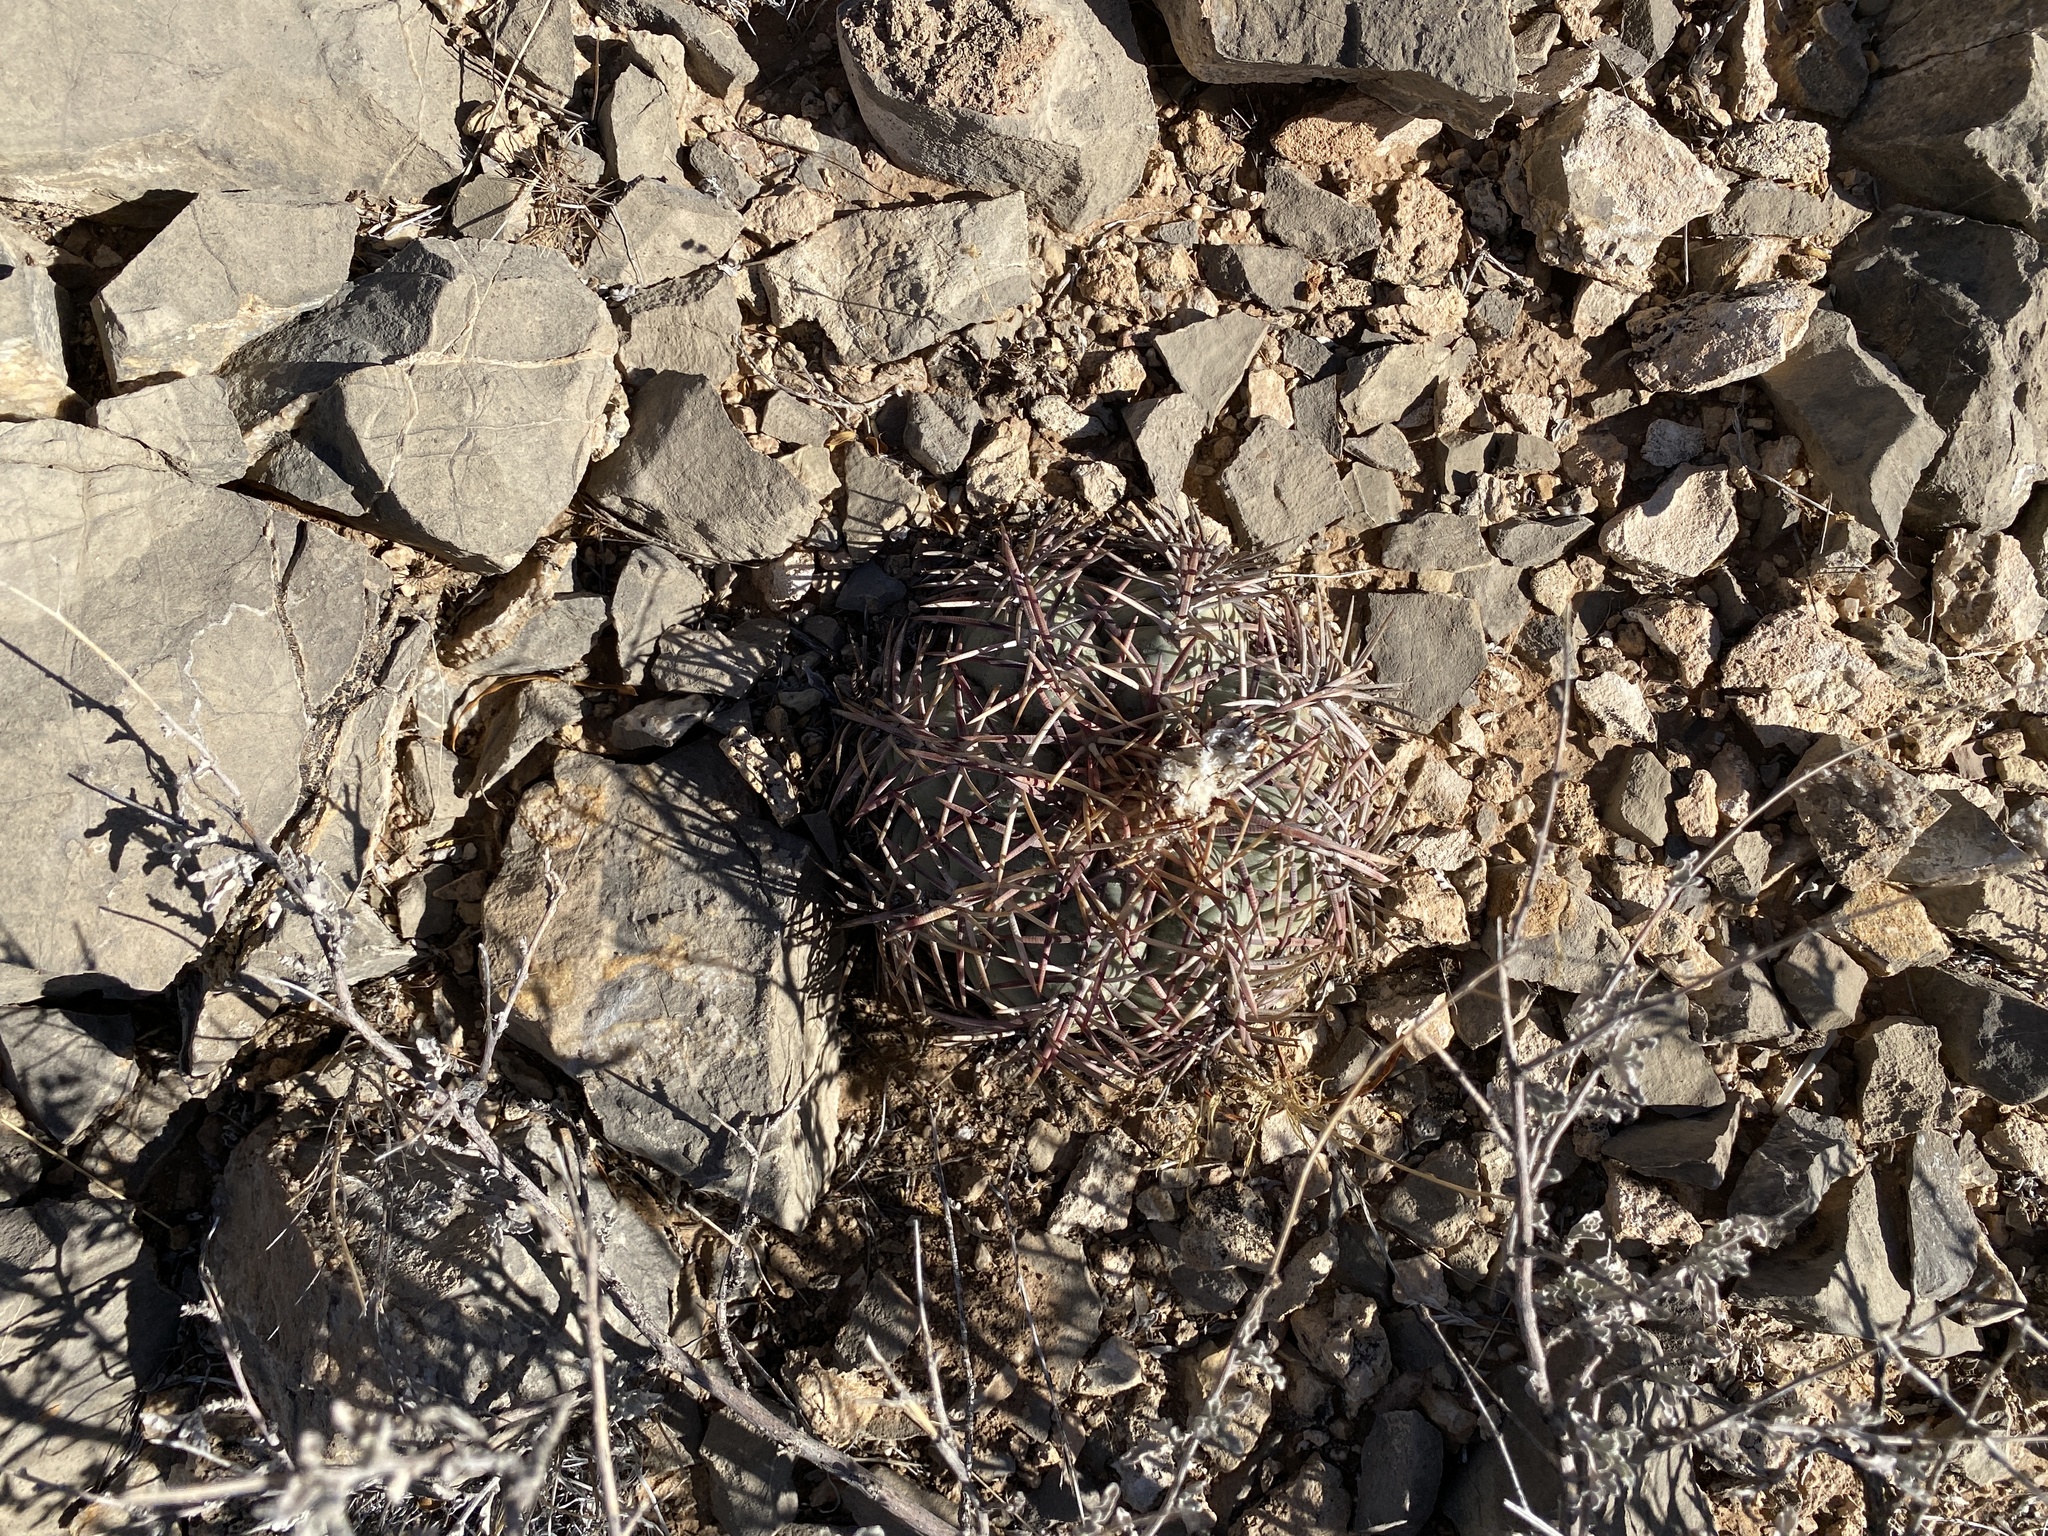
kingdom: Plantae
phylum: Tracheophyta
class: Magnoliopsida
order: Caryophyllales
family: Cactaceae
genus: Echinocactus
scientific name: Echinocactus horizonthalonius
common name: Devilshead
